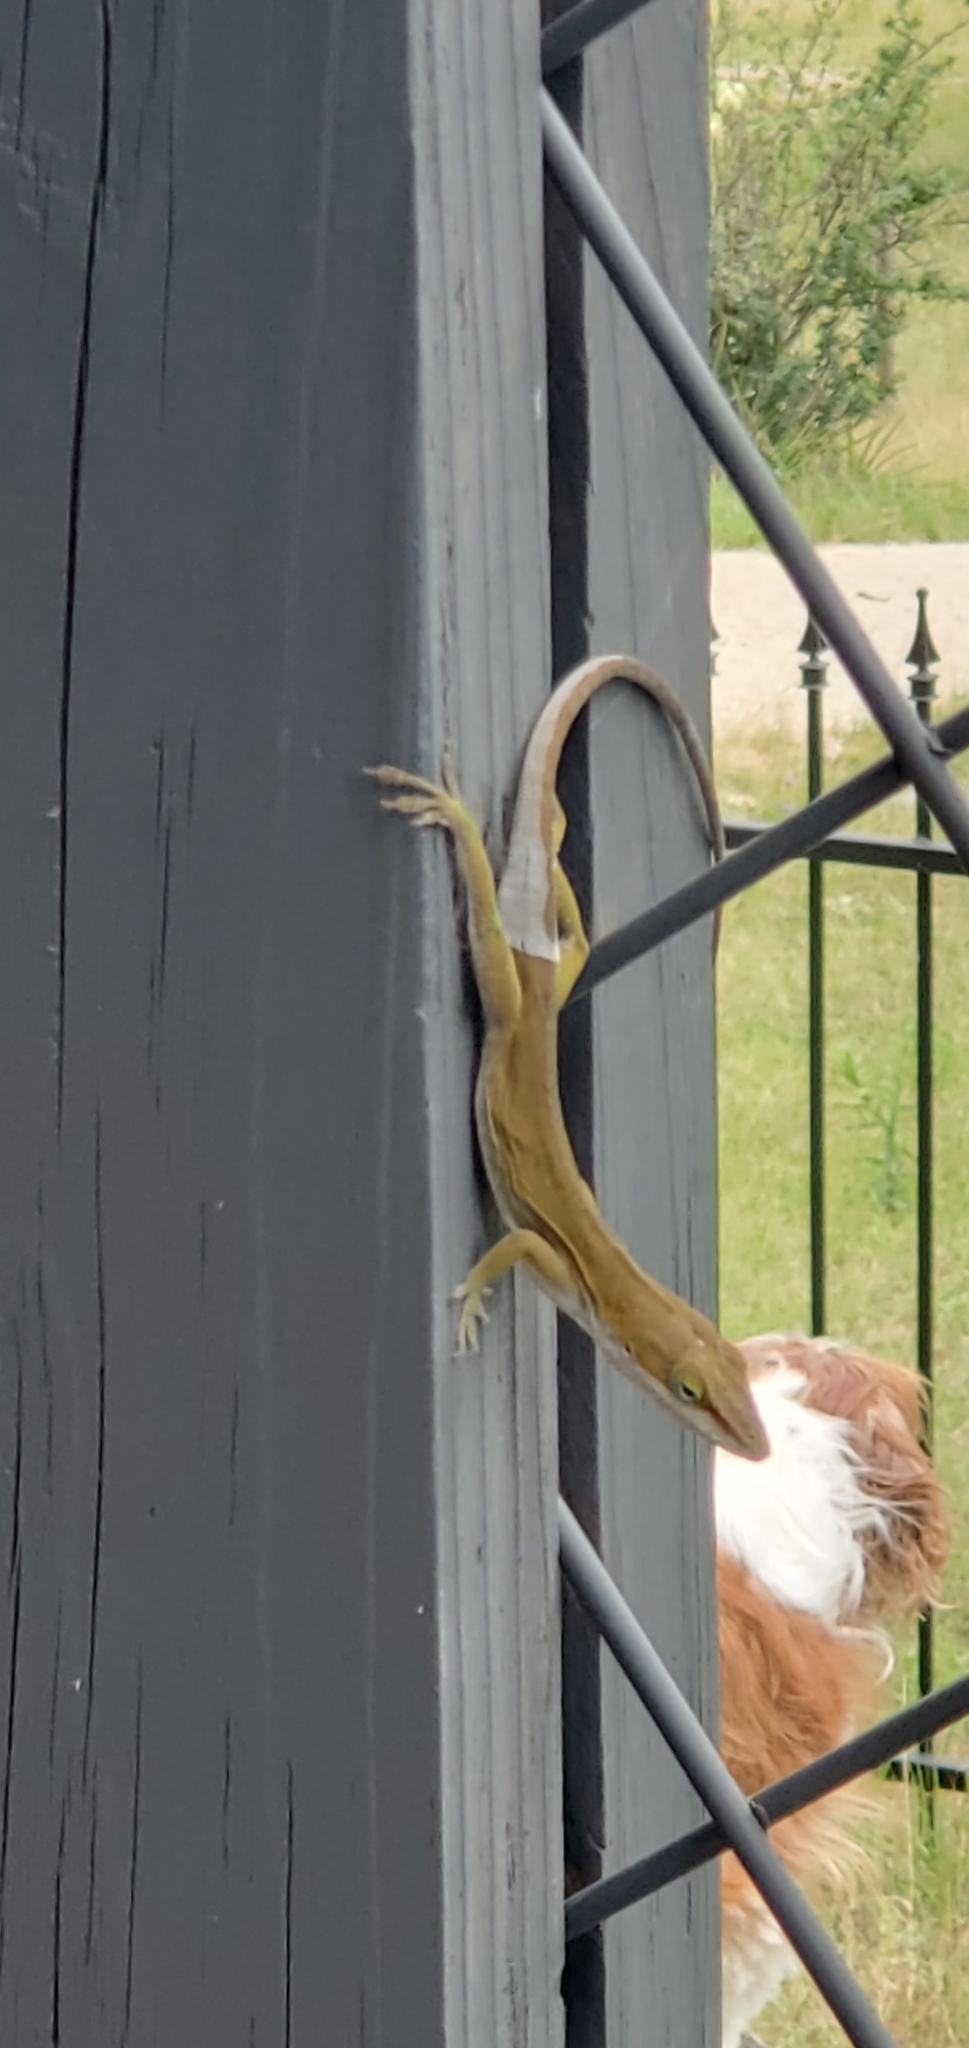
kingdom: Animalia
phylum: Chordata
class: Squamata
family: Dactyloidae
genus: Anolis
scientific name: Anolis carolinensis
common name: Green anole
